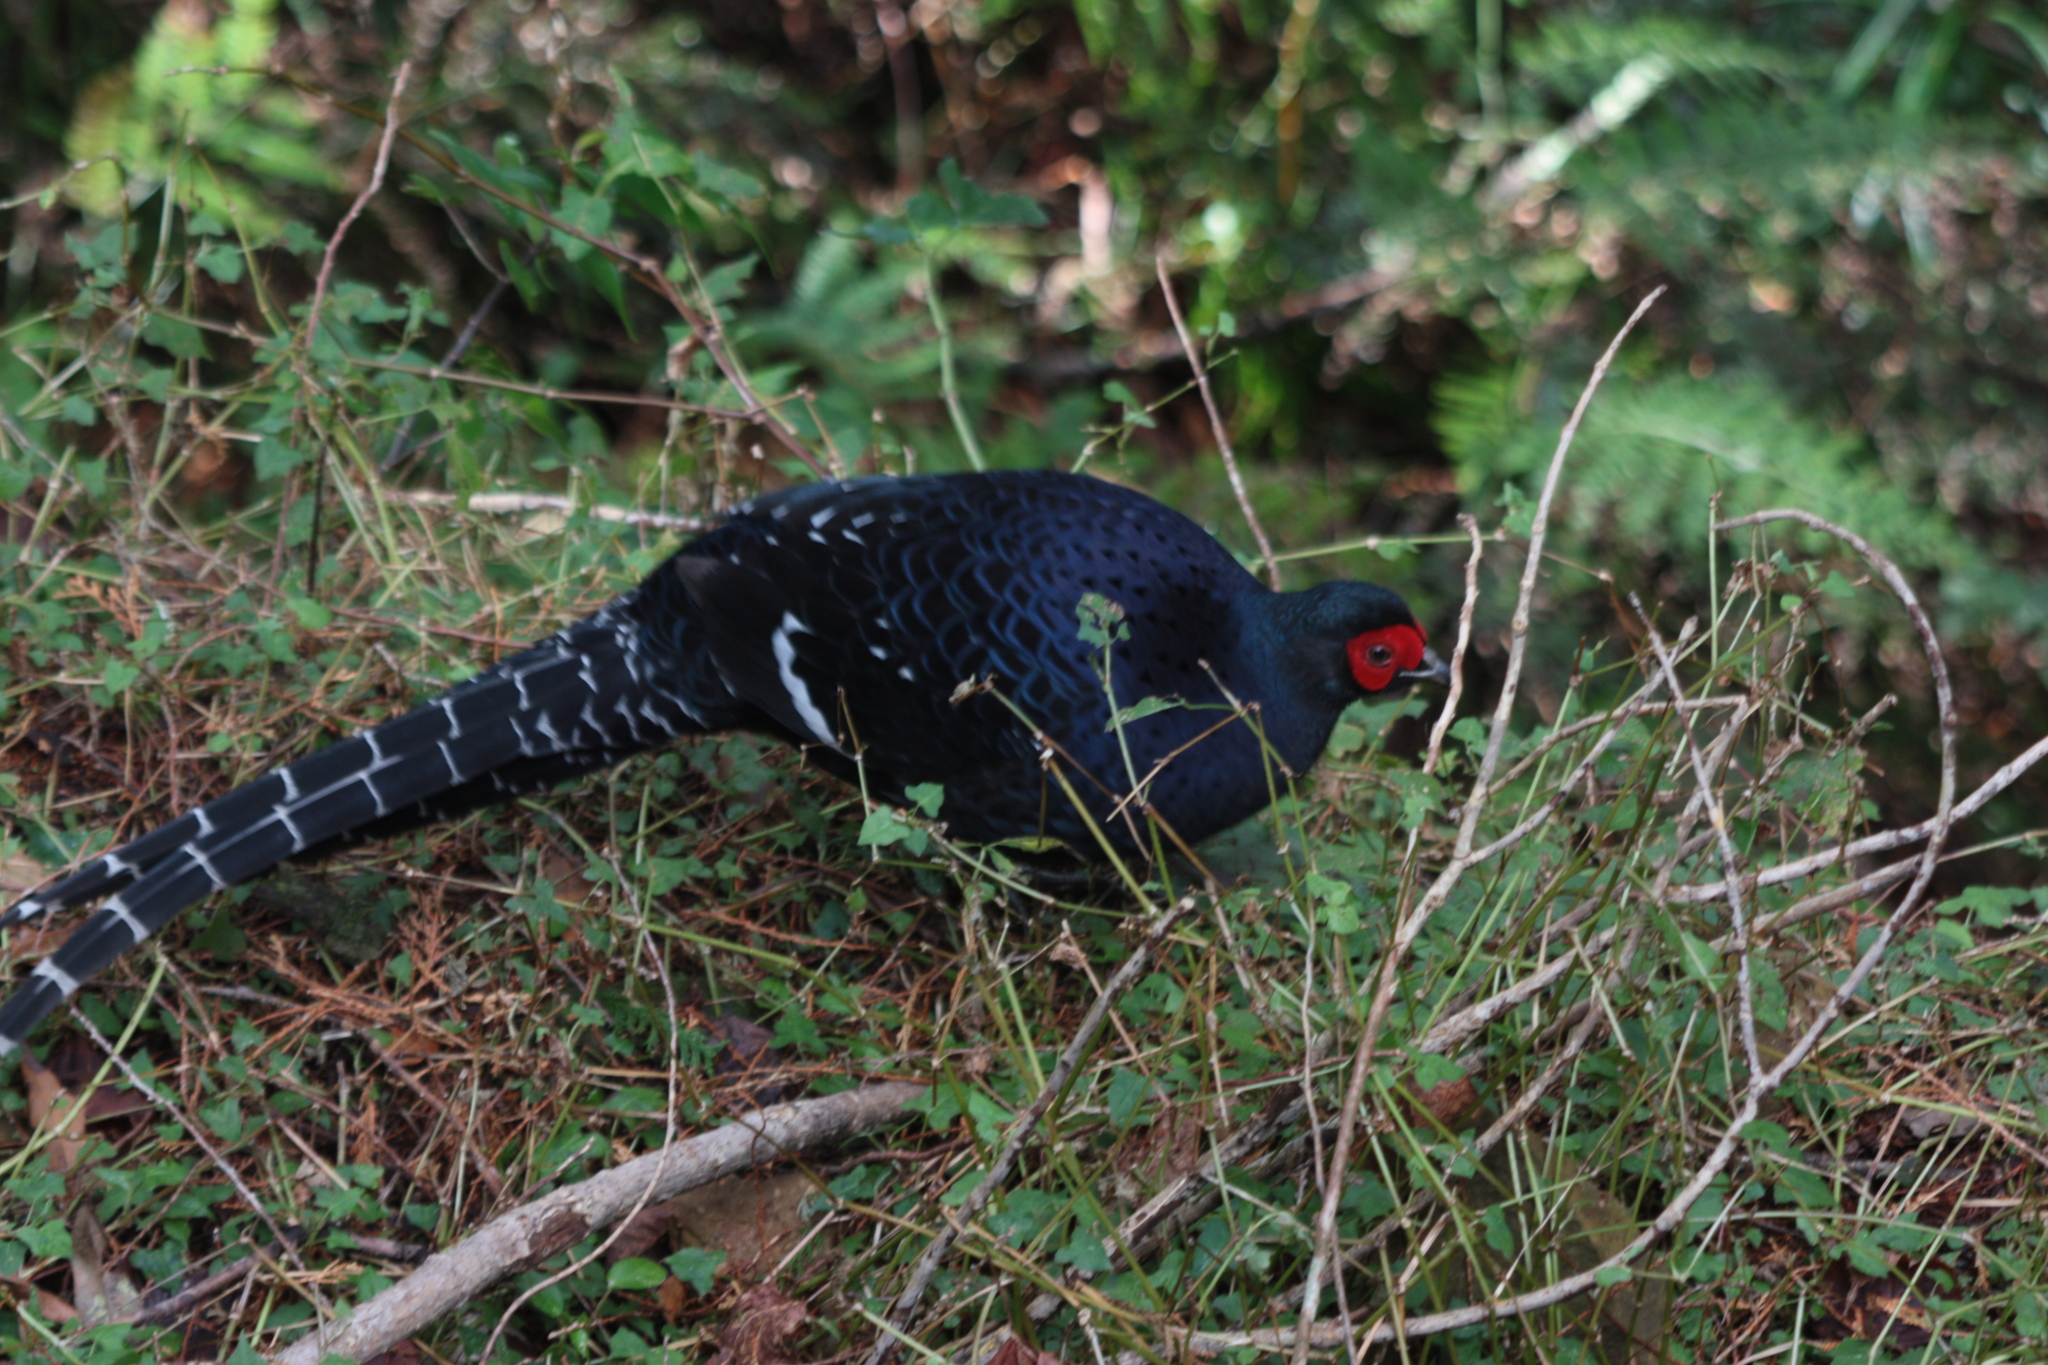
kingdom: Animalia
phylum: Chordata
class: Aves
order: Galliformes
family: Phasianidae
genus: Syrmaticus
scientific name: Syrmaticus mikado
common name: Mikado pheasant
